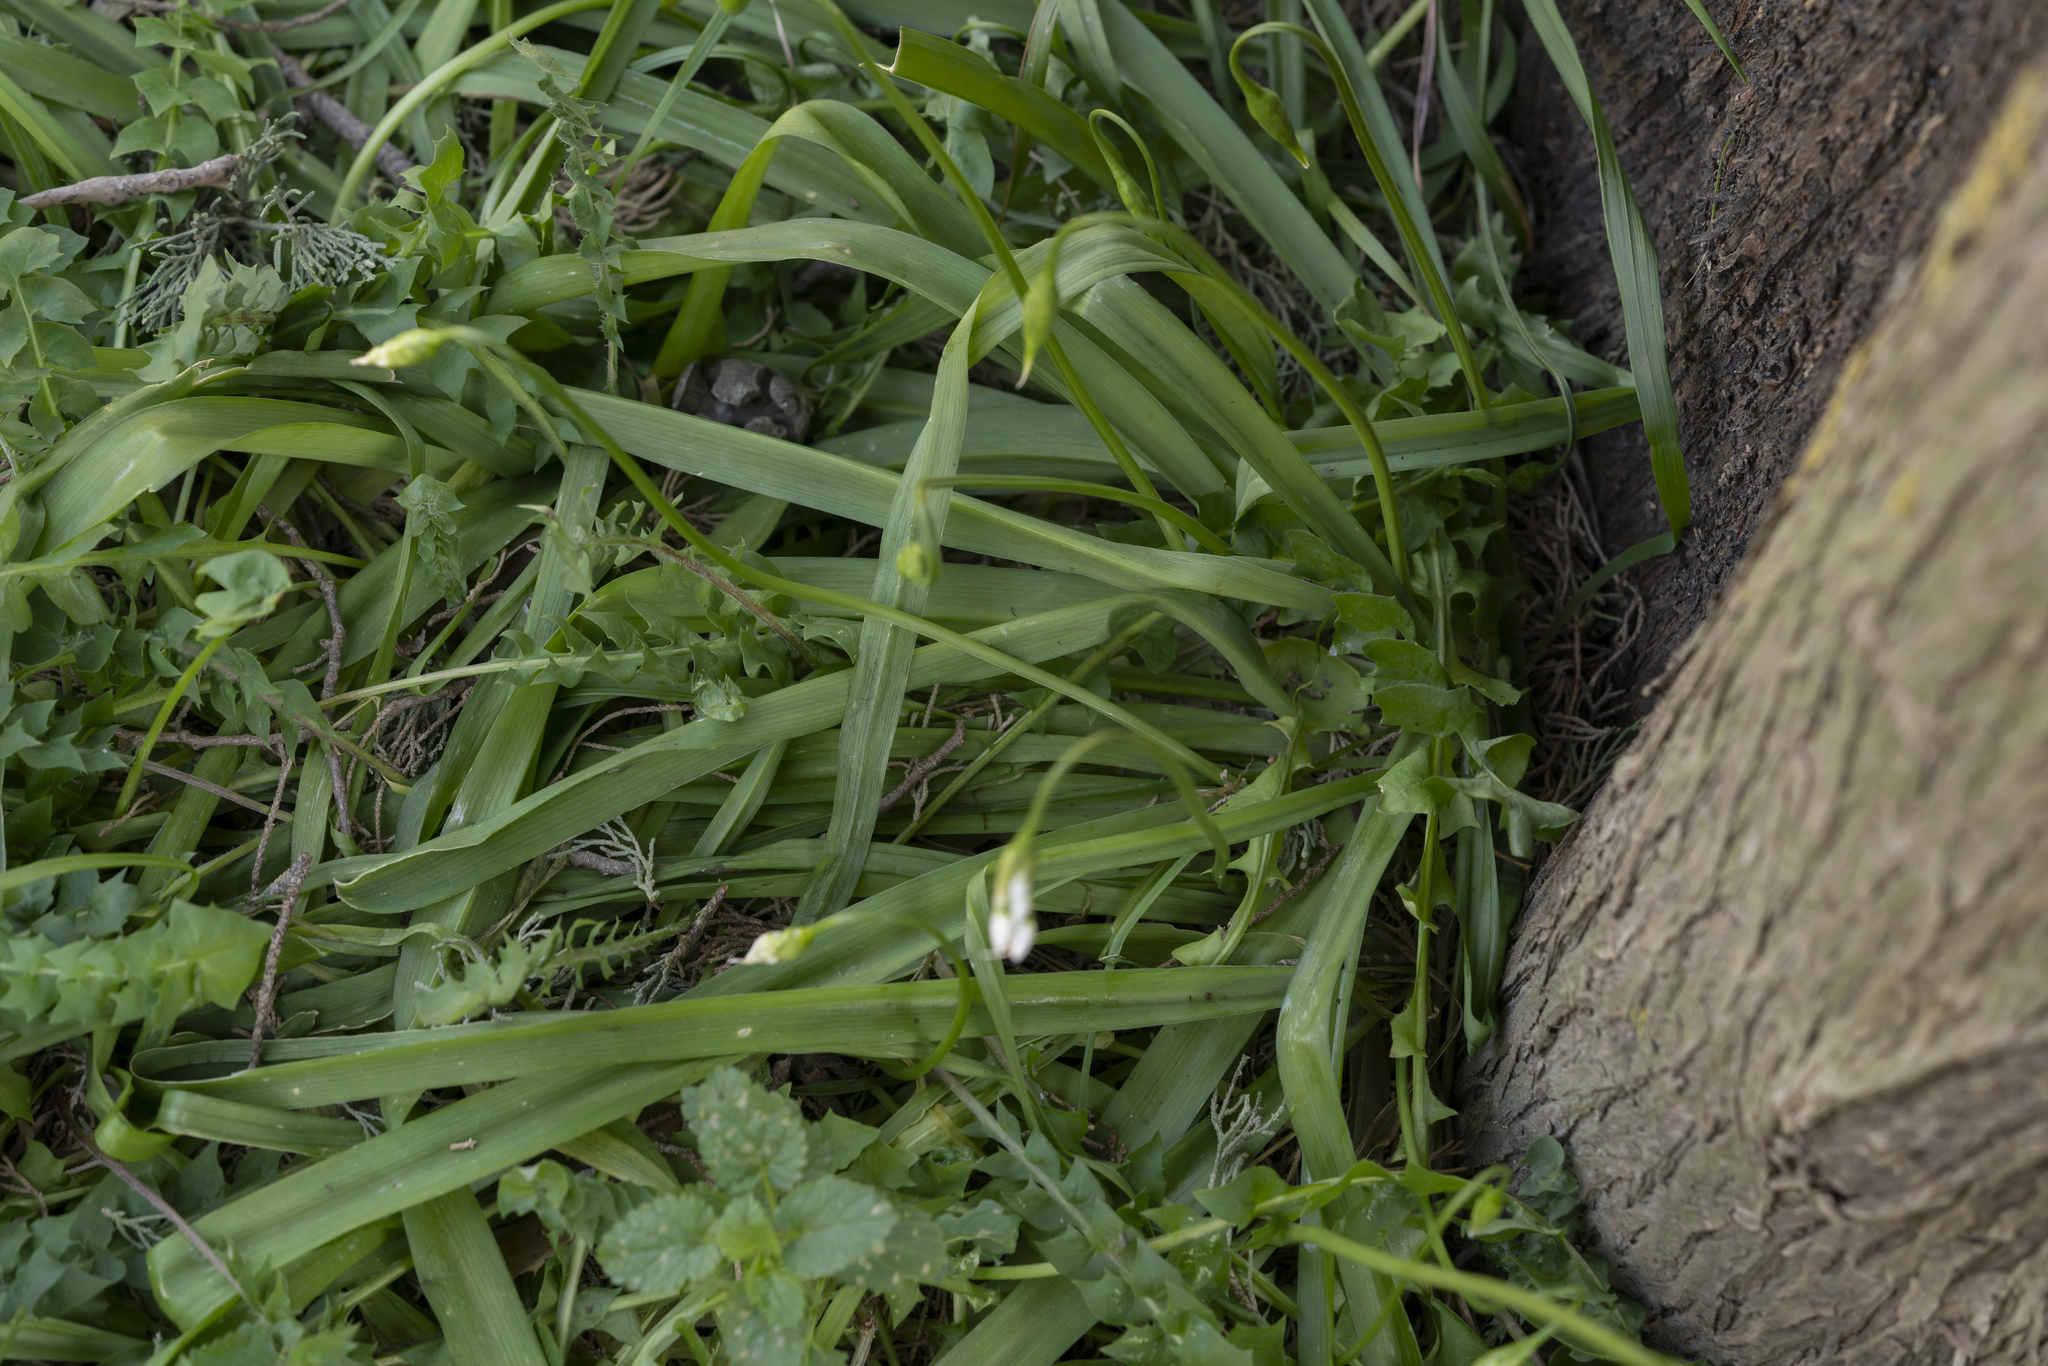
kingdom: Plantae
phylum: Tracheophyta
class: Liliopsida
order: Asparagales
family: Amaryllidaceae
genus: Allium
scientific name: Allium neapolitanum
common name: Neapolitan garlic
